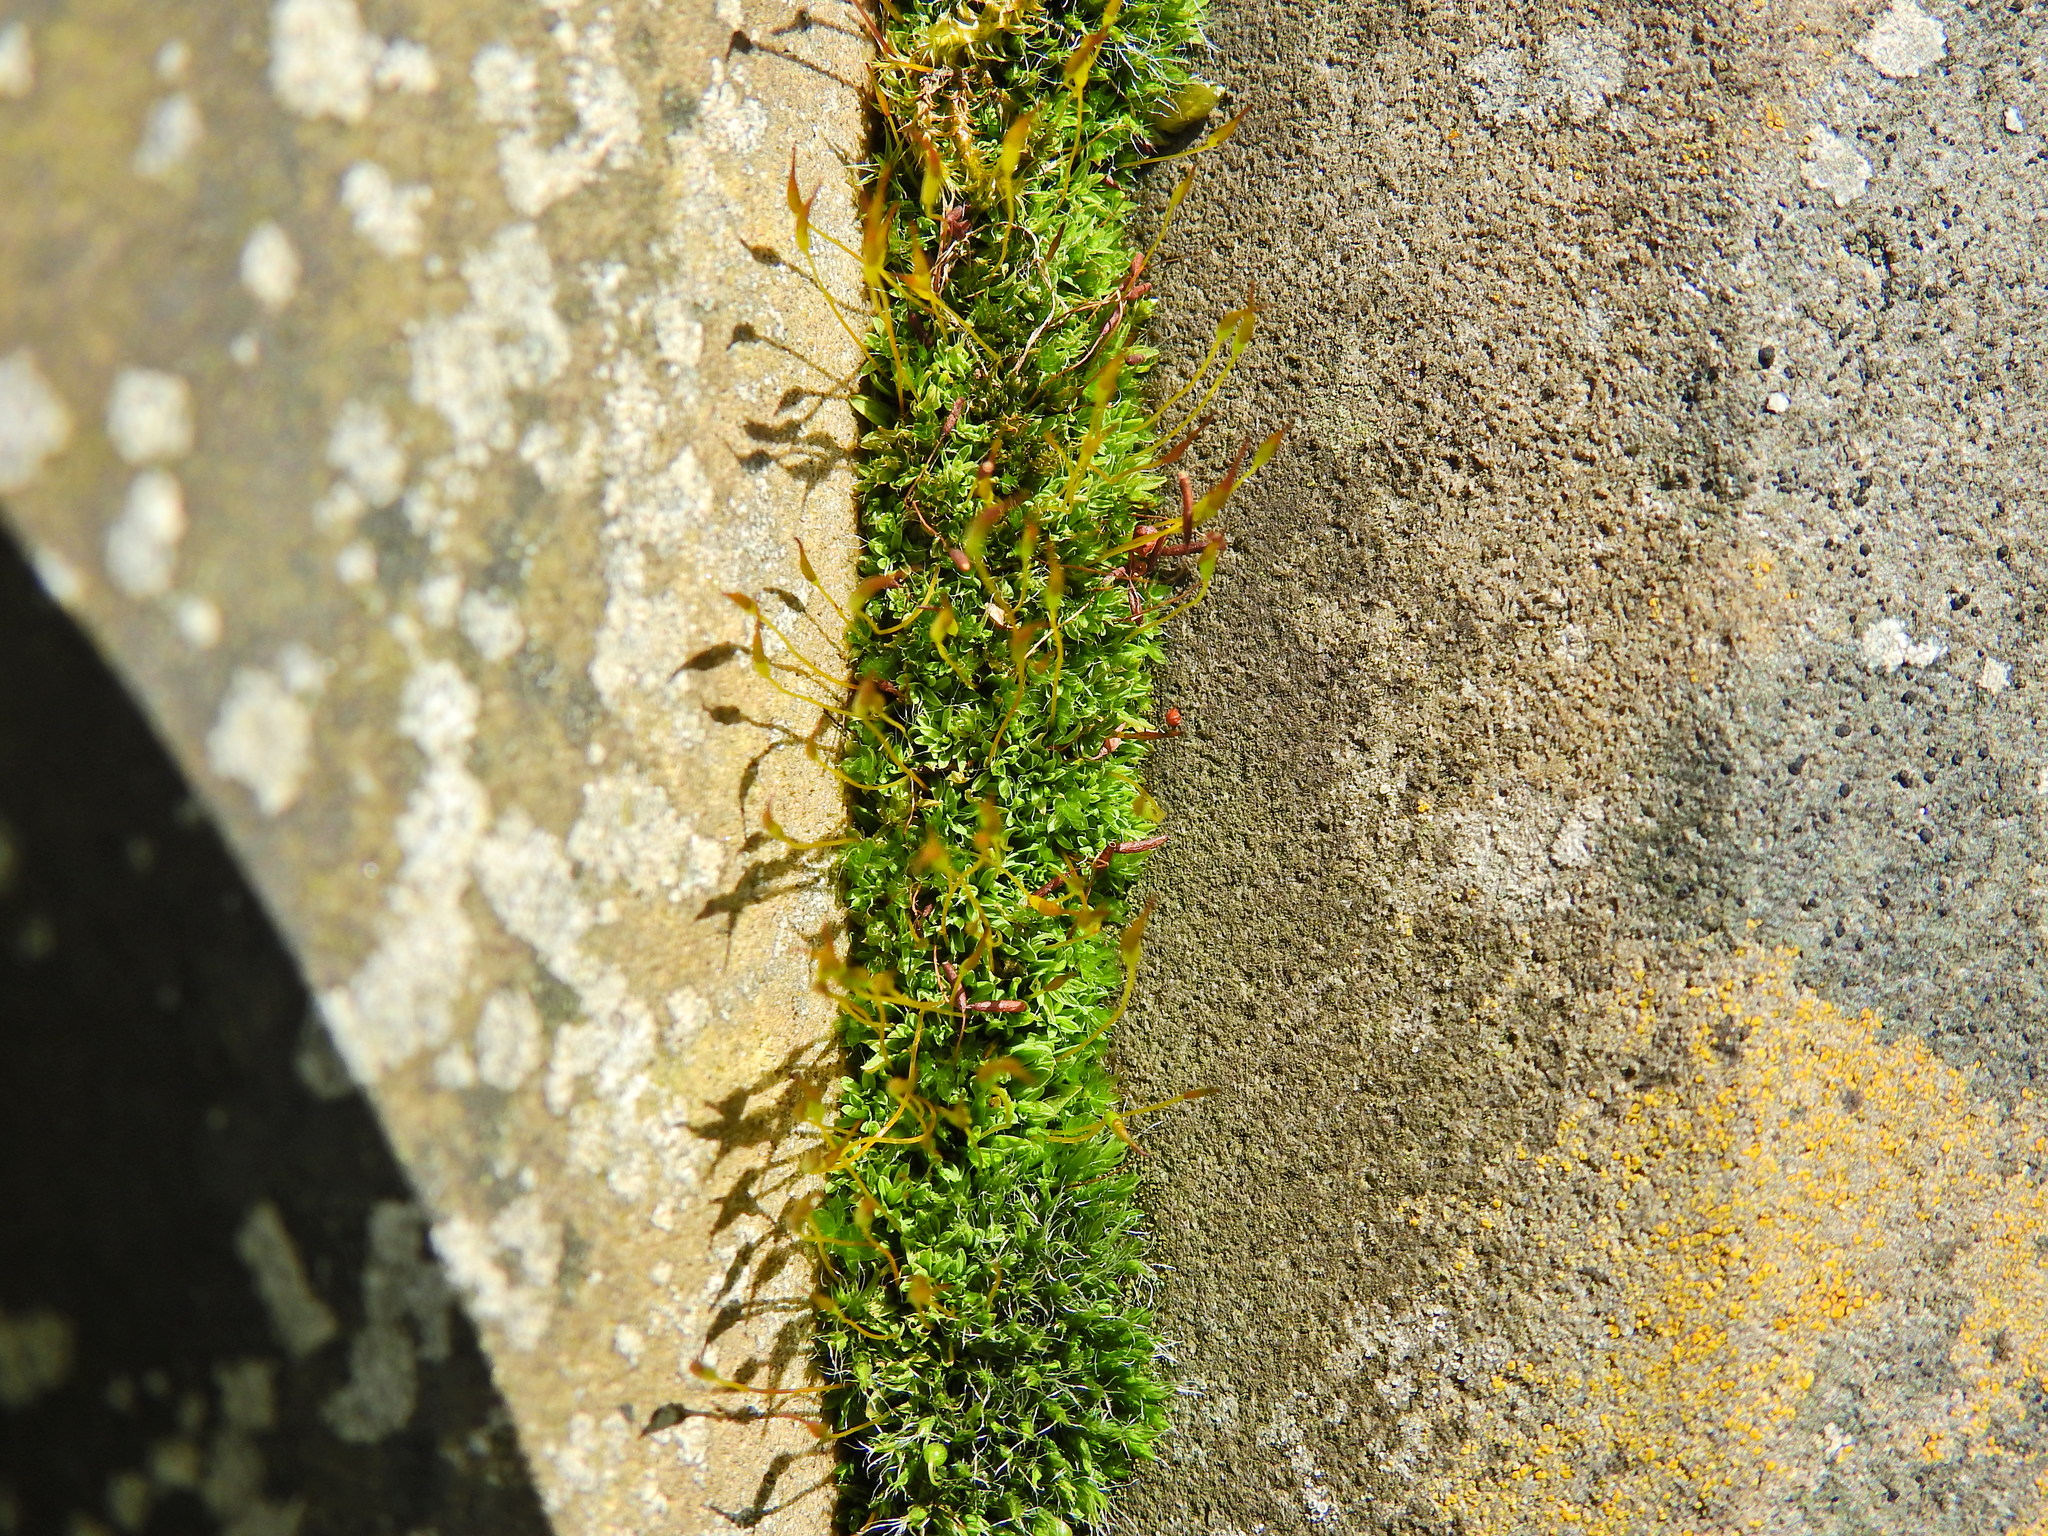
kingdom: Plantae
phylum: Bryophyta
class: Bryopsida
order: Pottiales
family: Pottiaceae
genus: Tortula
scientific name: Tortula muralis
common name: Wall screw-moss
